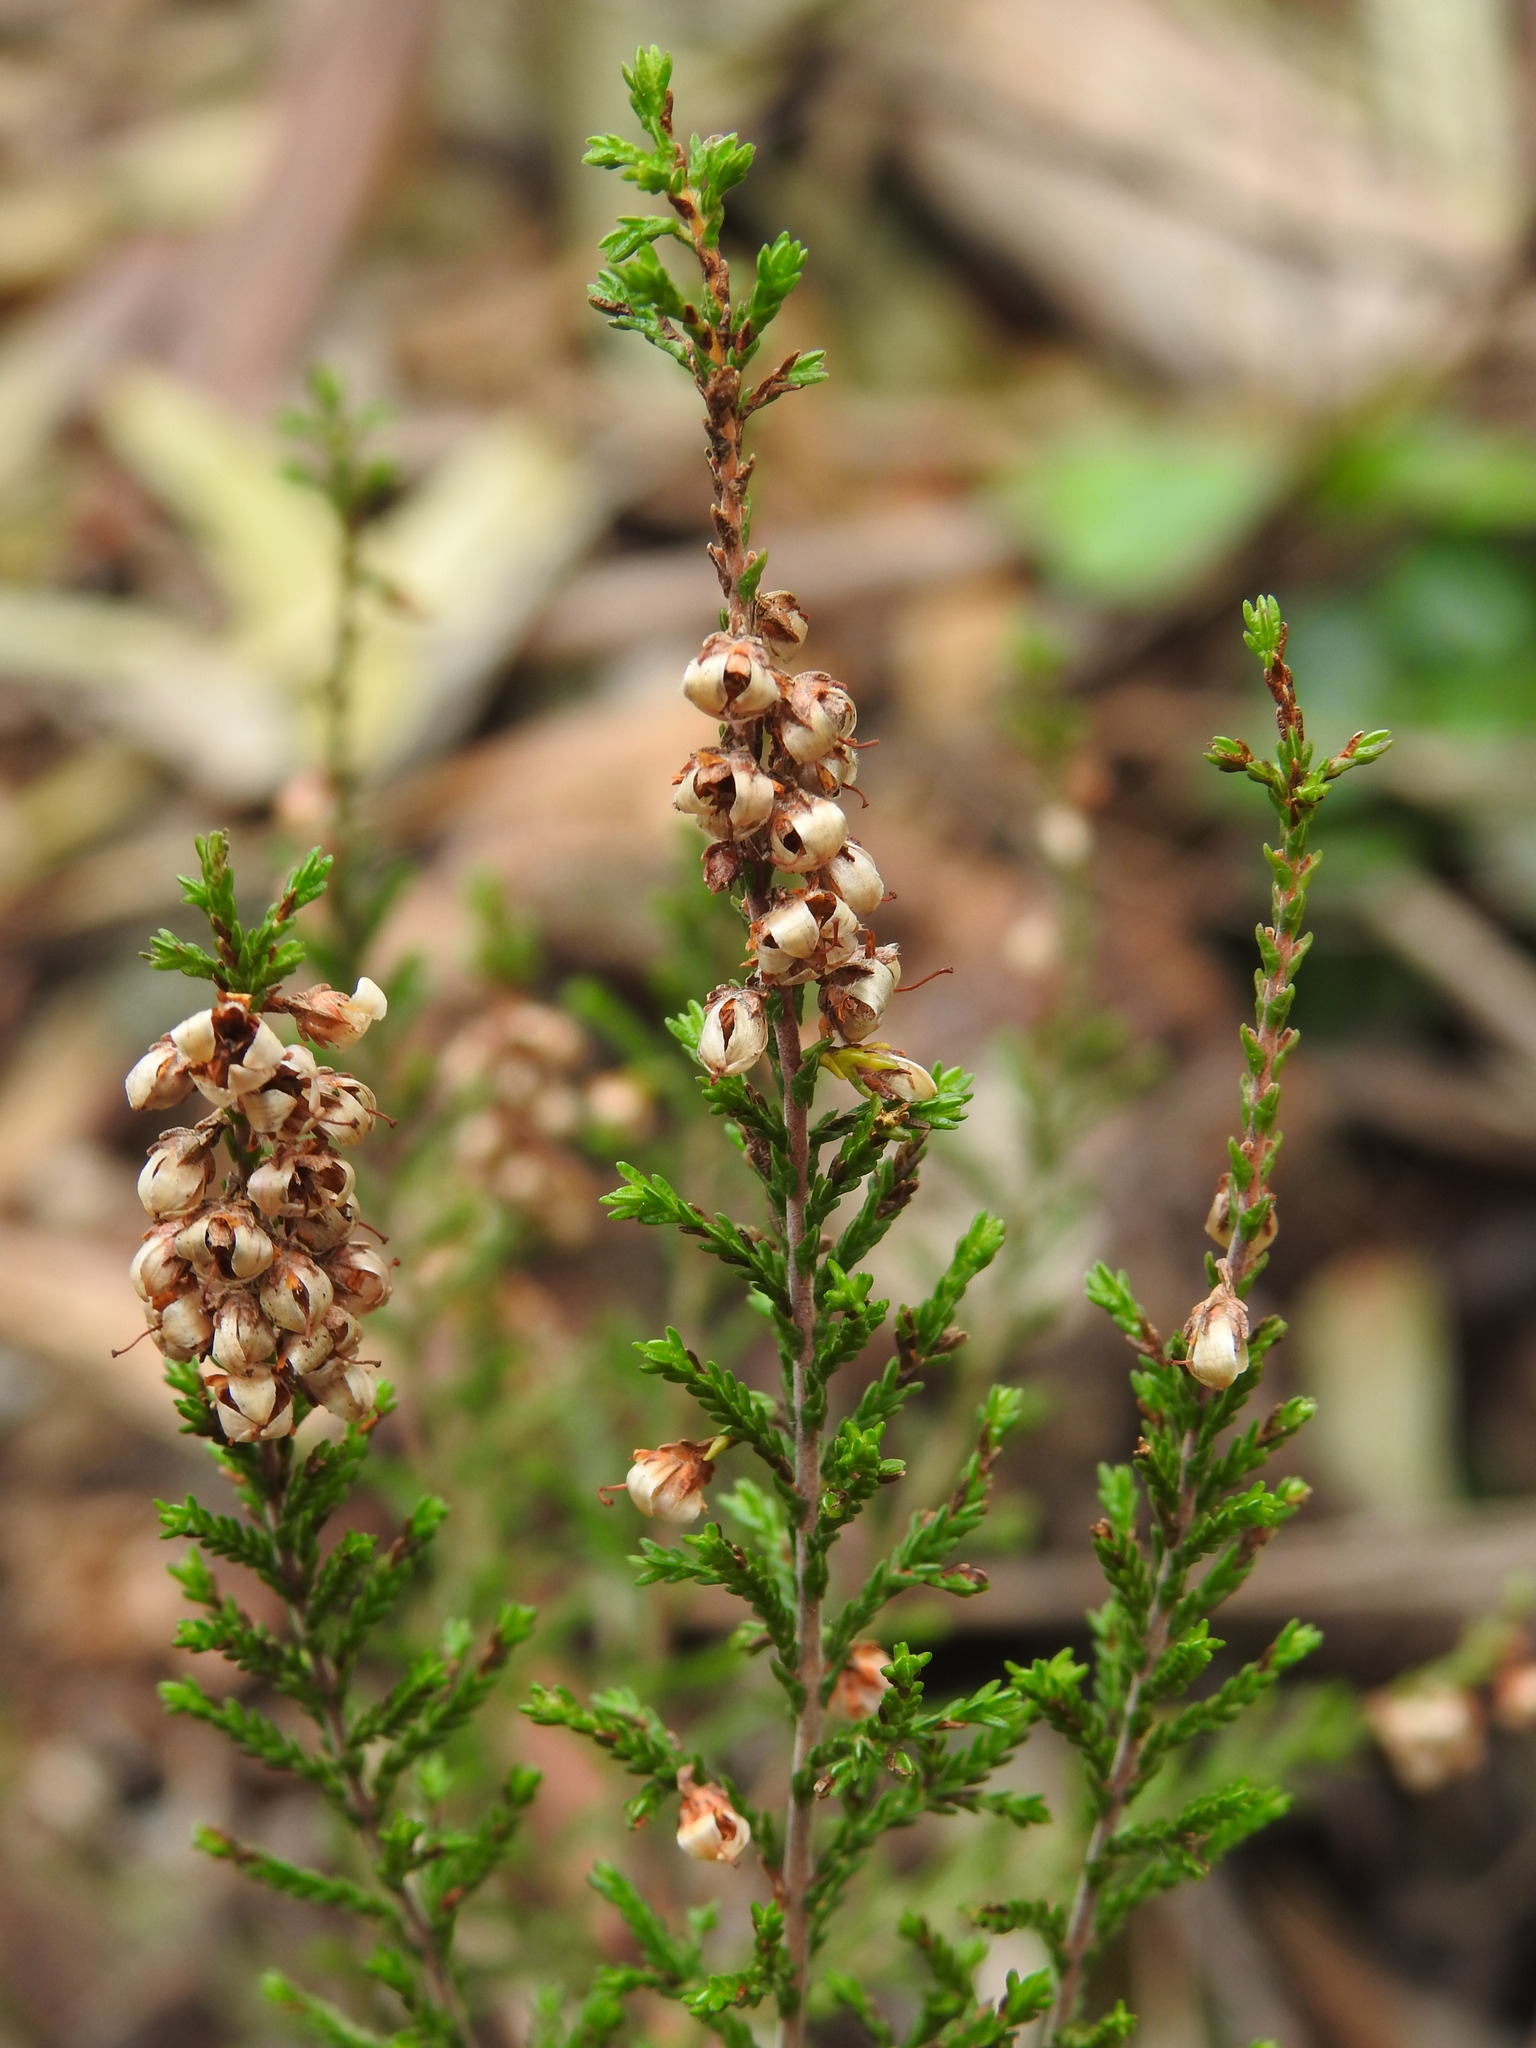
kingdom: Plantae
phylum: Tracheophyta
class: Magnoliopsida
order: Ericales
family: Ericaceae
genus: Calluna
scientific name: Calluna vulgaris
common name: Heather
